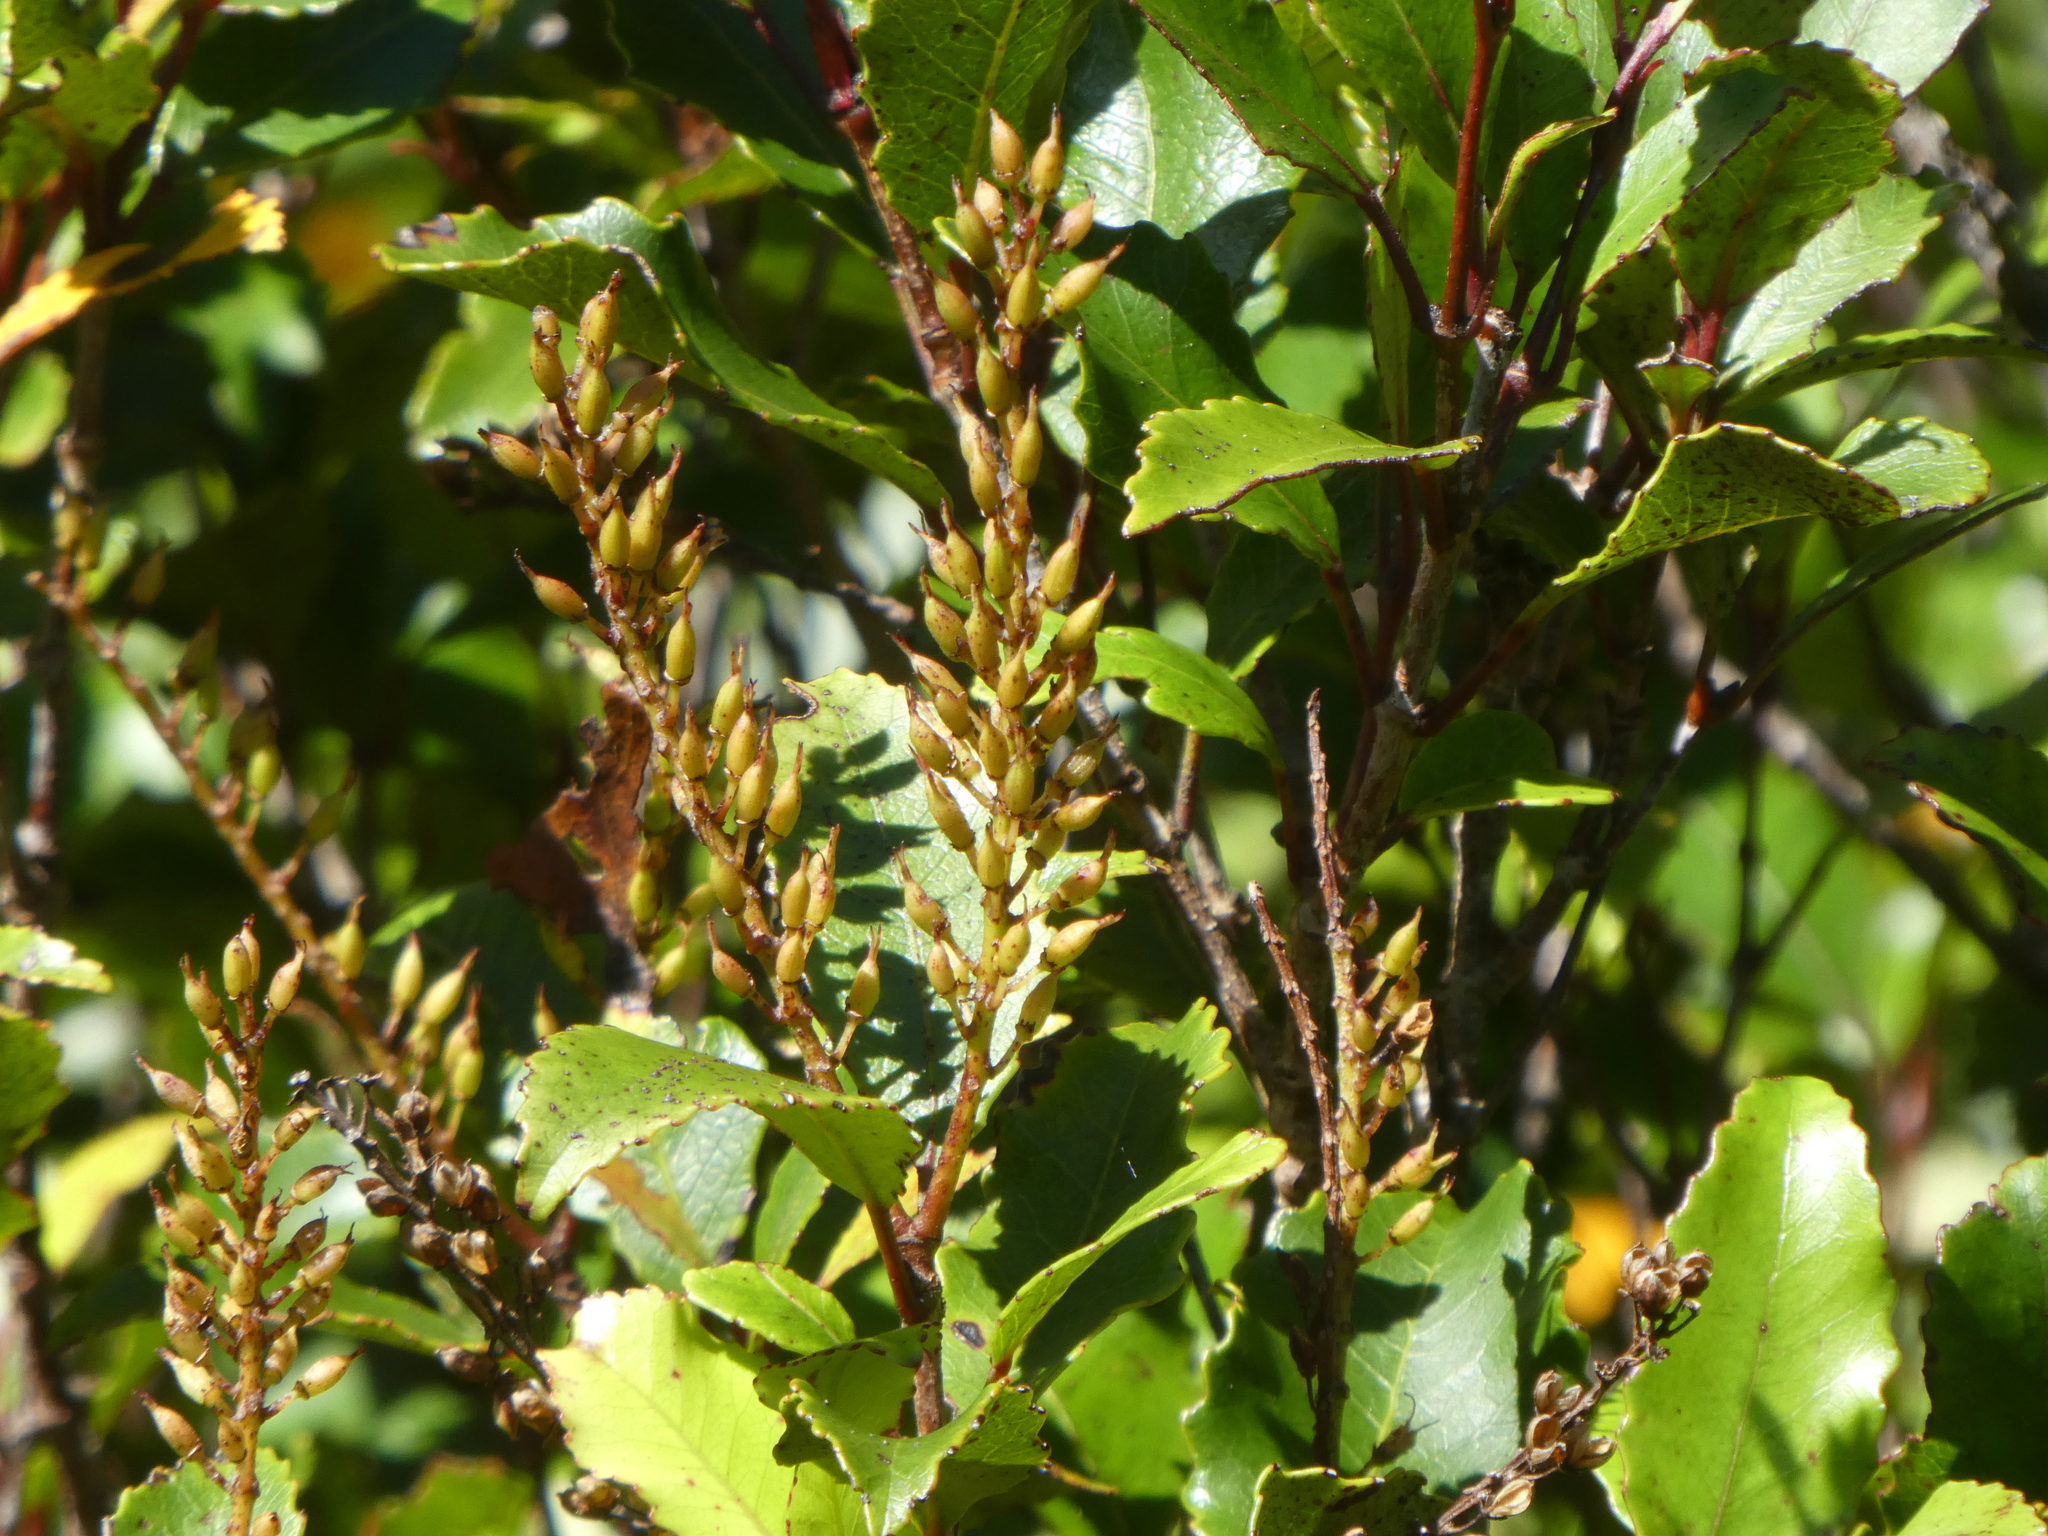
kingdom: Plantae
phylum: Tracheophyta
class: Magnoliopsida
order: Oxalidales
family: Cunoniaceae
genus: Pterophylla
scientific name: Pterophylla racemosa
